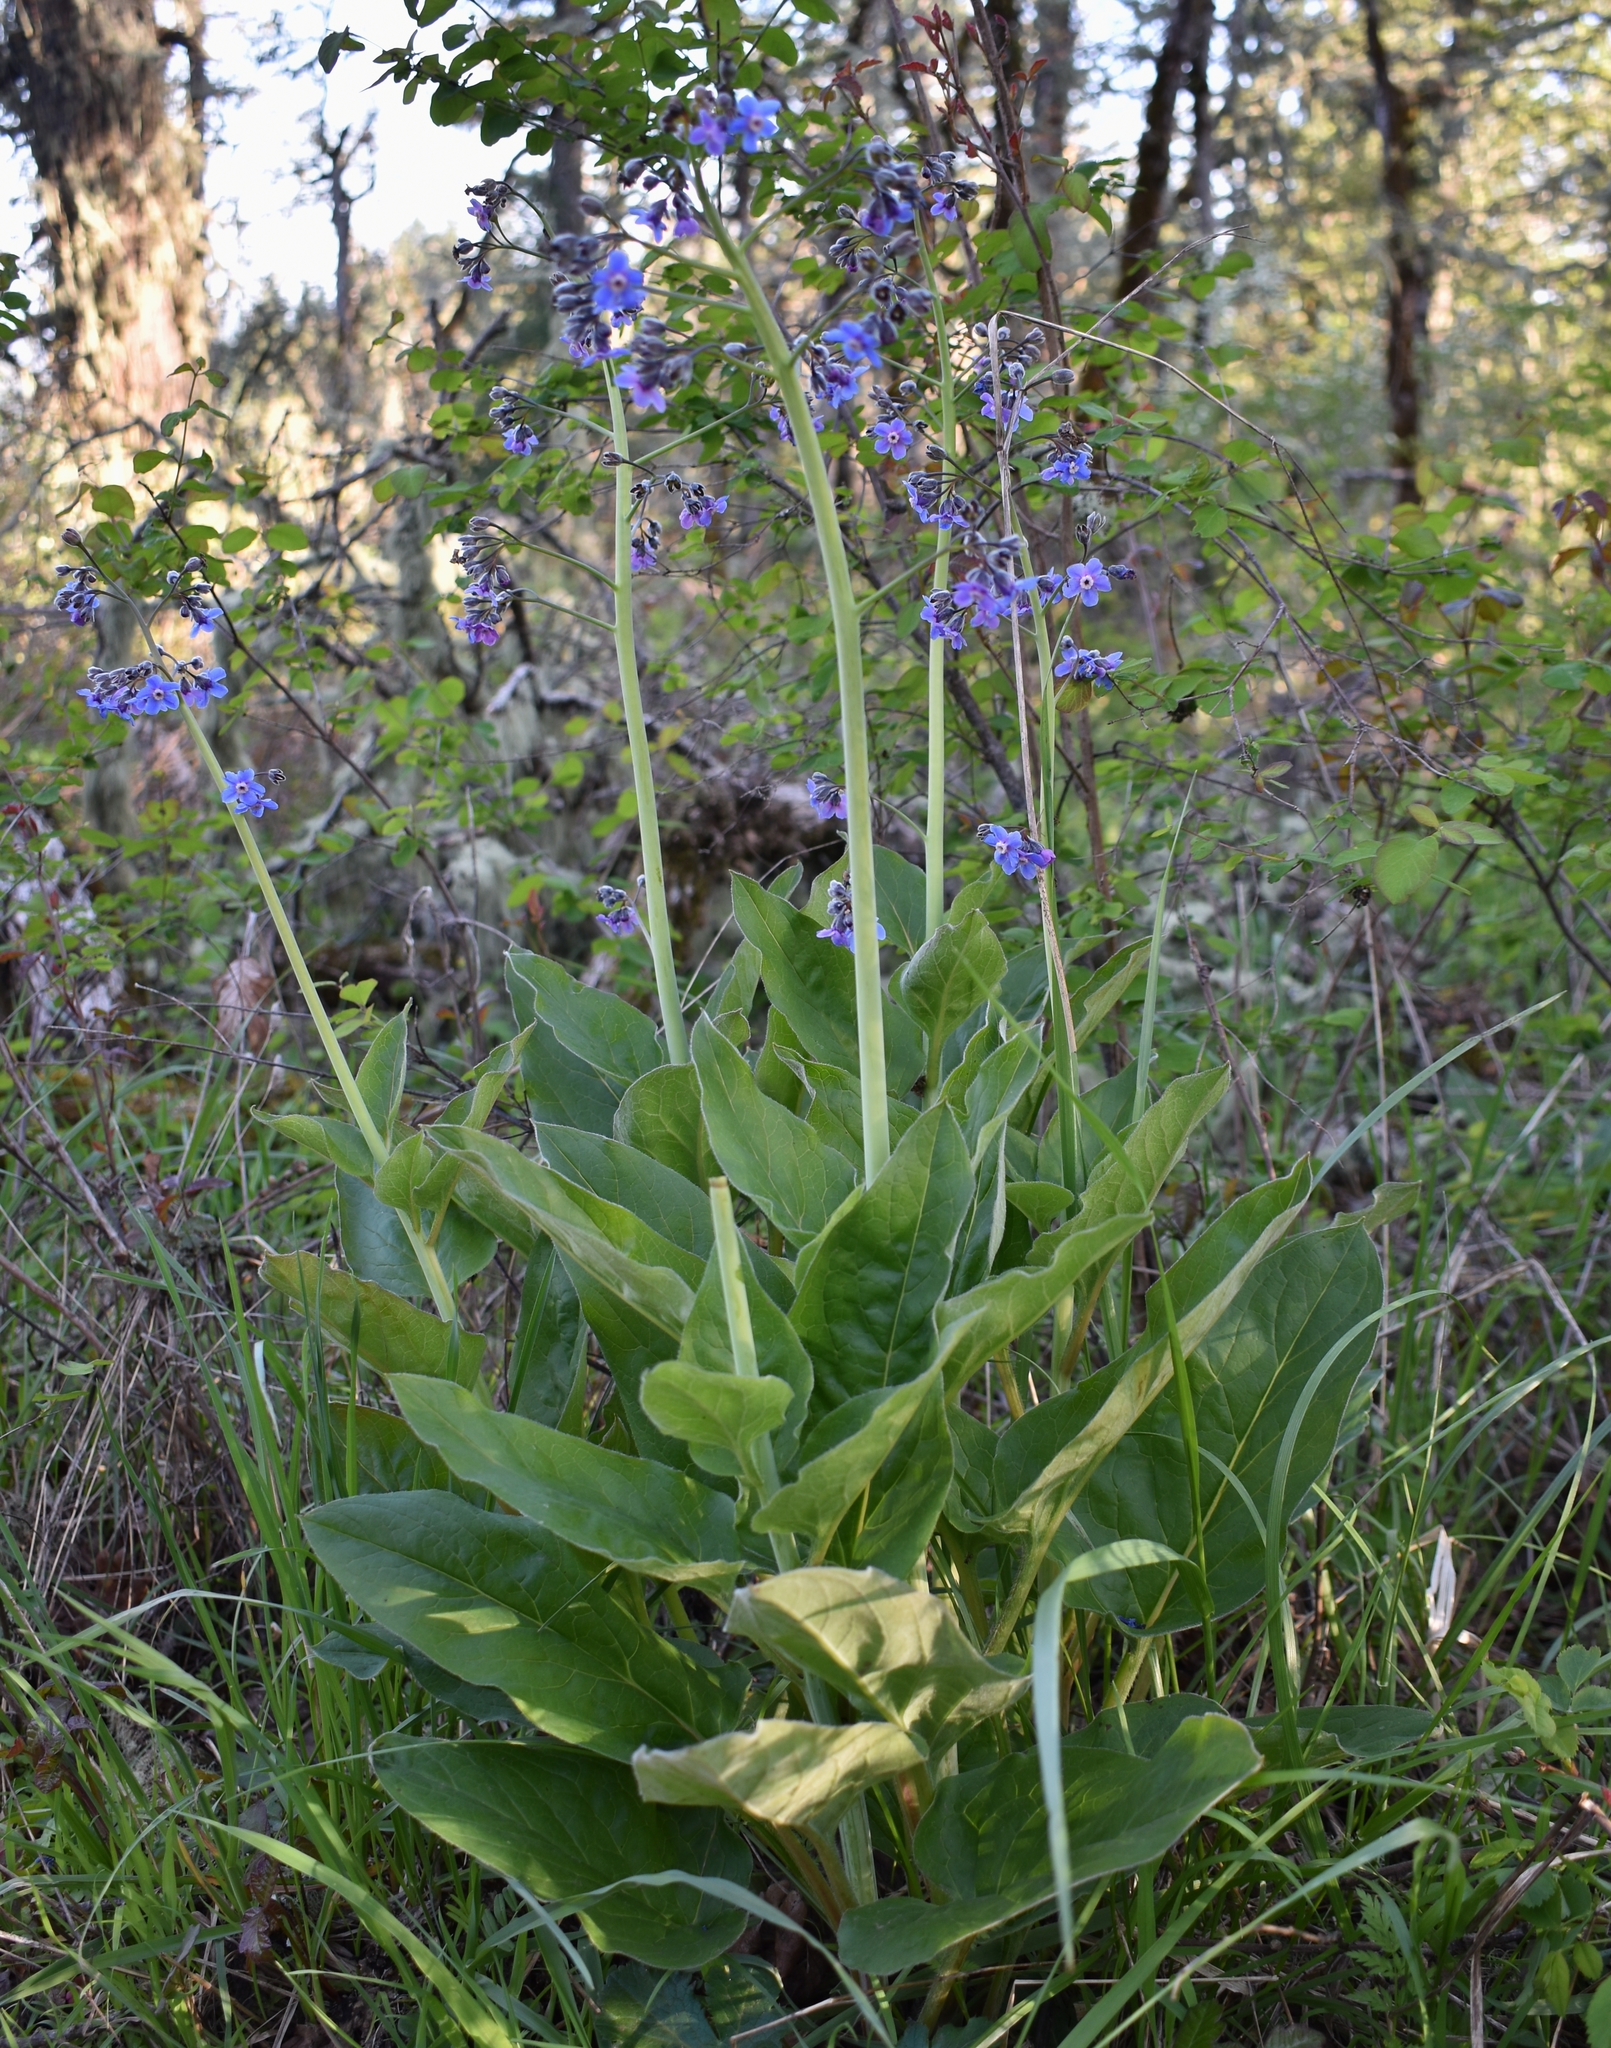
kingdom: Plantae
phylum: Tracheophyta
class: Magnoliopsida
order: Boraginales
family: Boraginaceae
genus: Adelinia
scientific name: Adelinia grande
